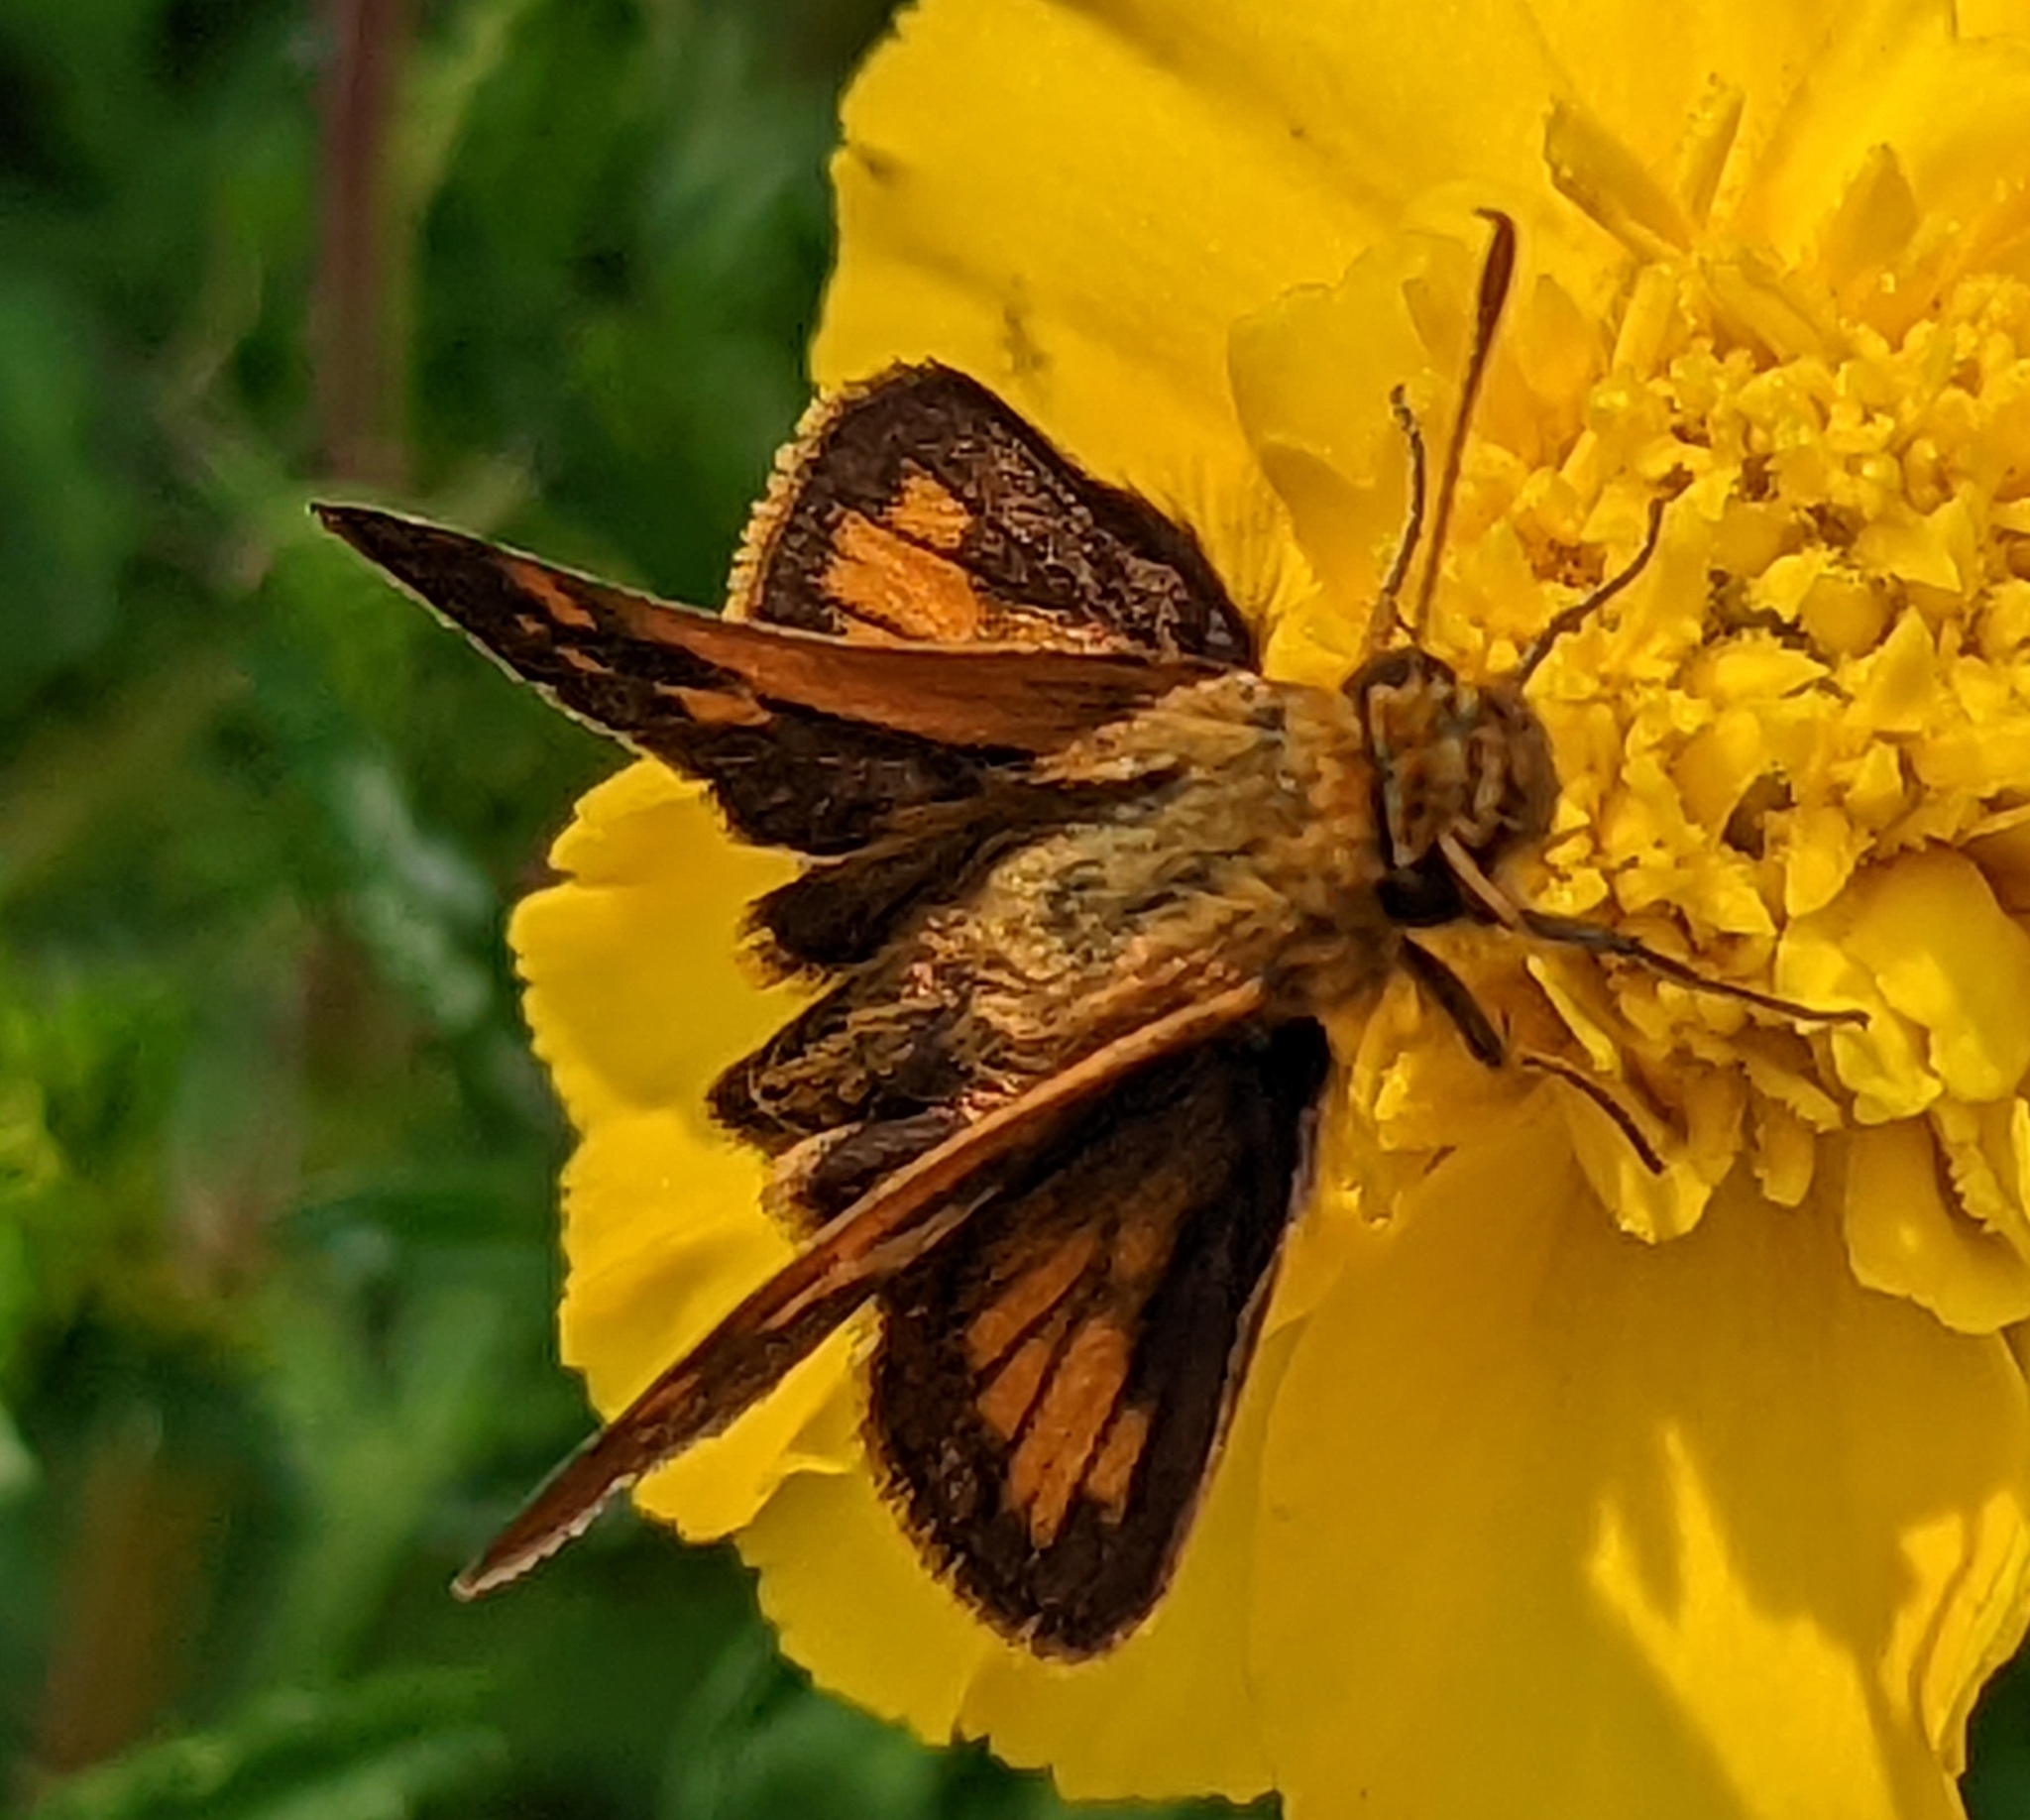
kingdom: Animalia
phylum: Arthropoda
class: Insecta
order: Lepidoptera
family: Hesperiidae
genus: Polites
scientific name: Polites coras
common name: Peck's skipper
